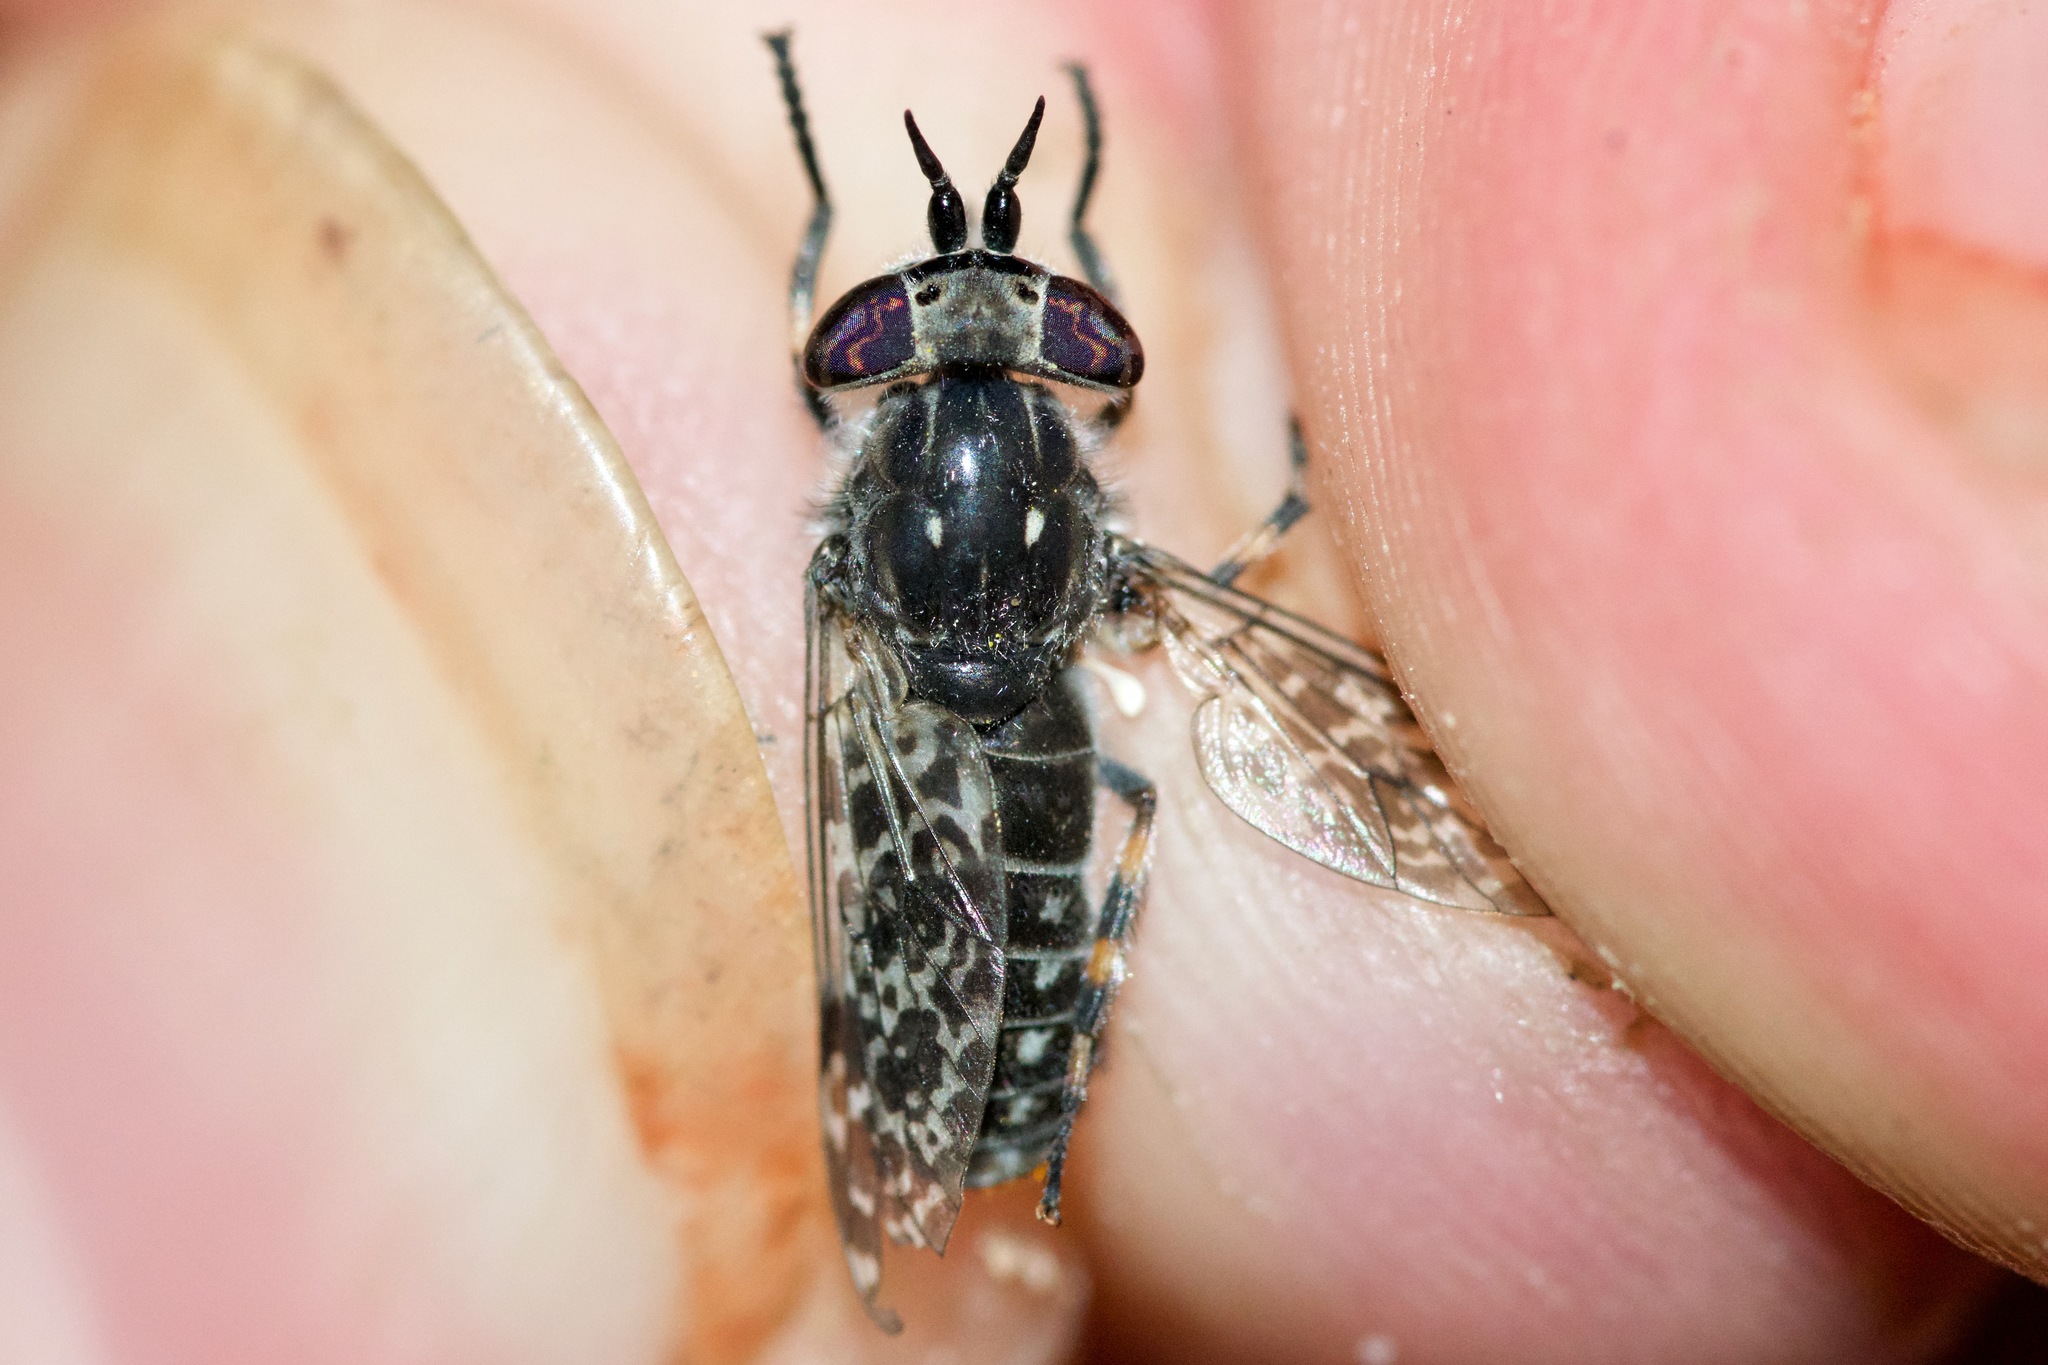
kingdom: Animalia
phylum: Arthropoda
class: Insecta
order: Diptera
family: Tabanidae
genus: Haematopota
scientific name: Haematopota americana
